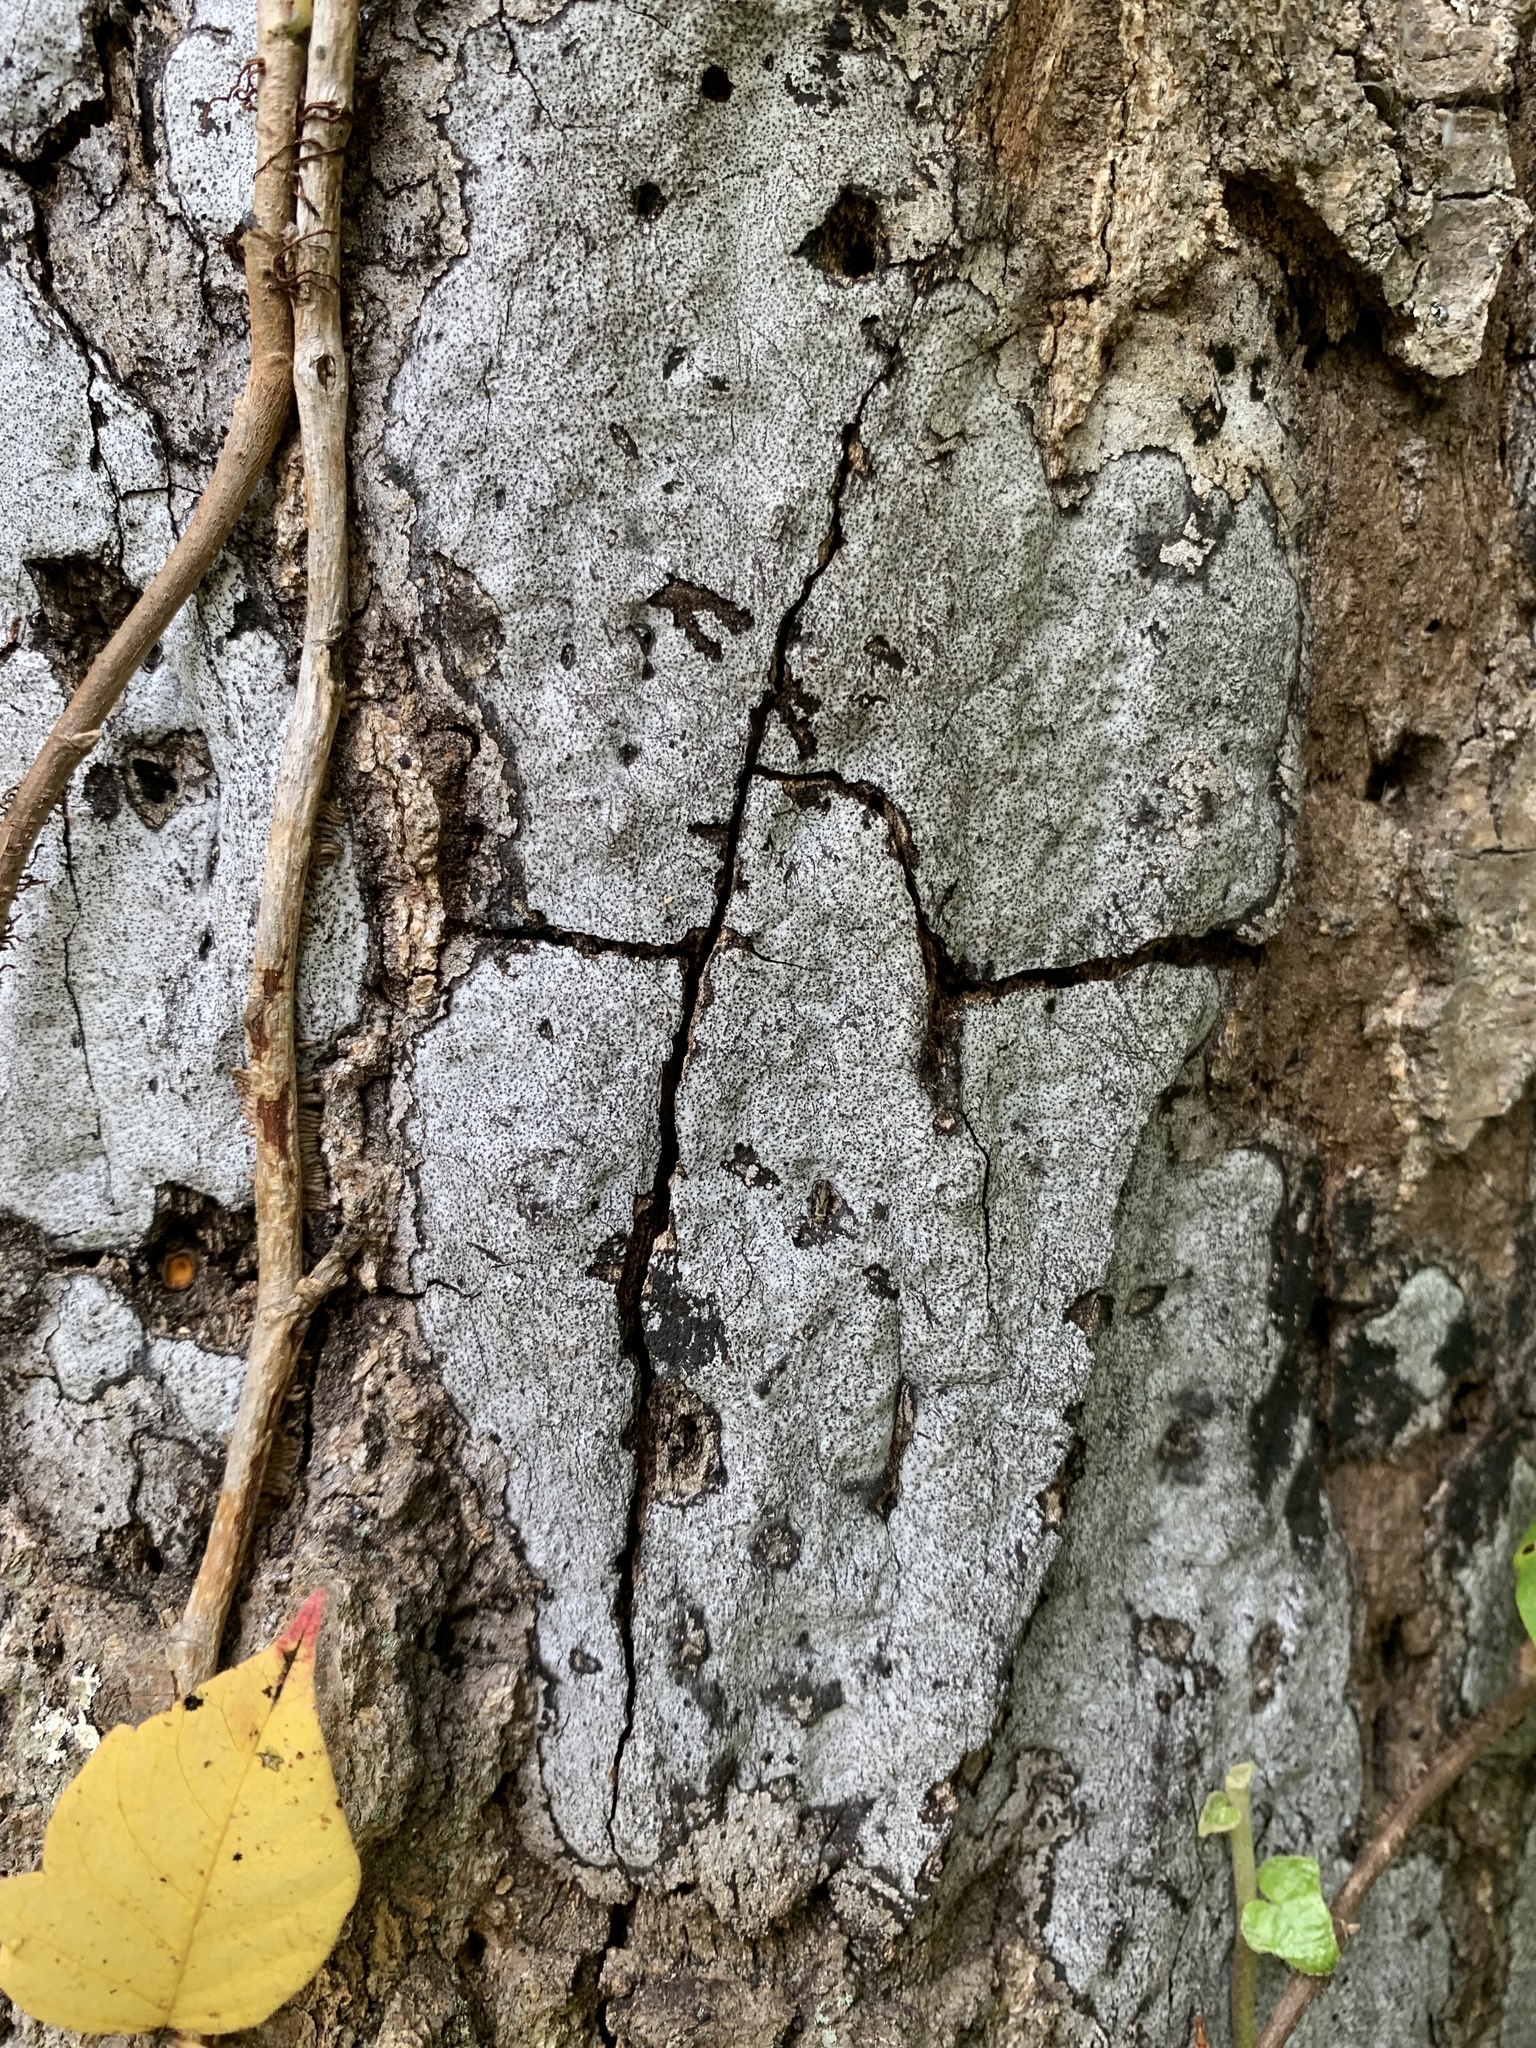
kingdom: Fungi
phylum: Ascomycota
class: Sordariomycetes
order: Xylariales
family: Graphostromataceae
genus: Biscogniauxia
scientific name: Biscogniauxia atropunctata
